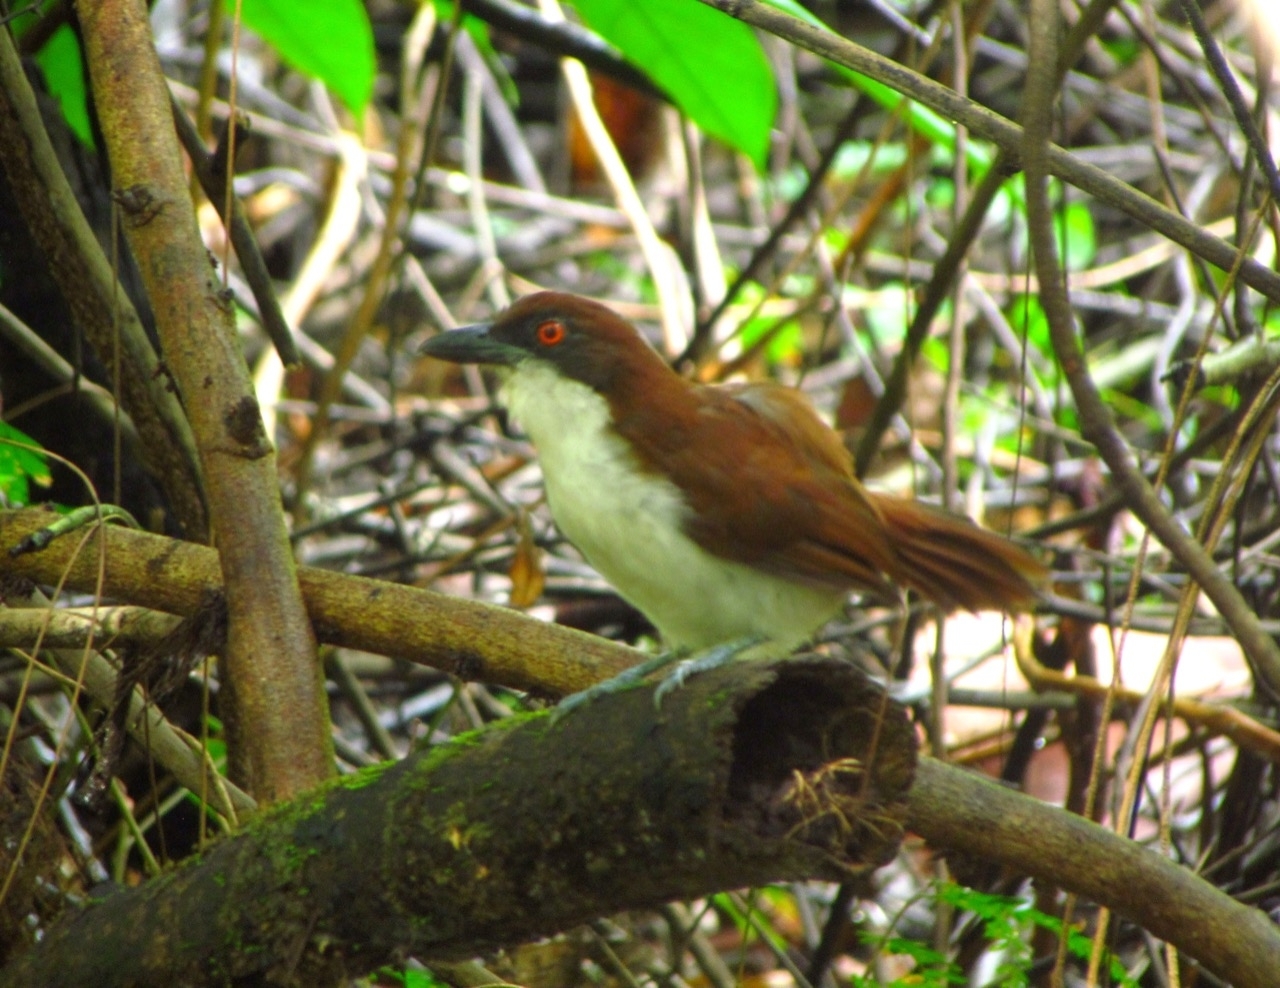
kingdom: Animalia
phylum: Chordata
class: Aves
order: Passeriformes
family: Thamnophilidae
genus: Taraba
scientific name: Taraba major
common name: Great antshrike
